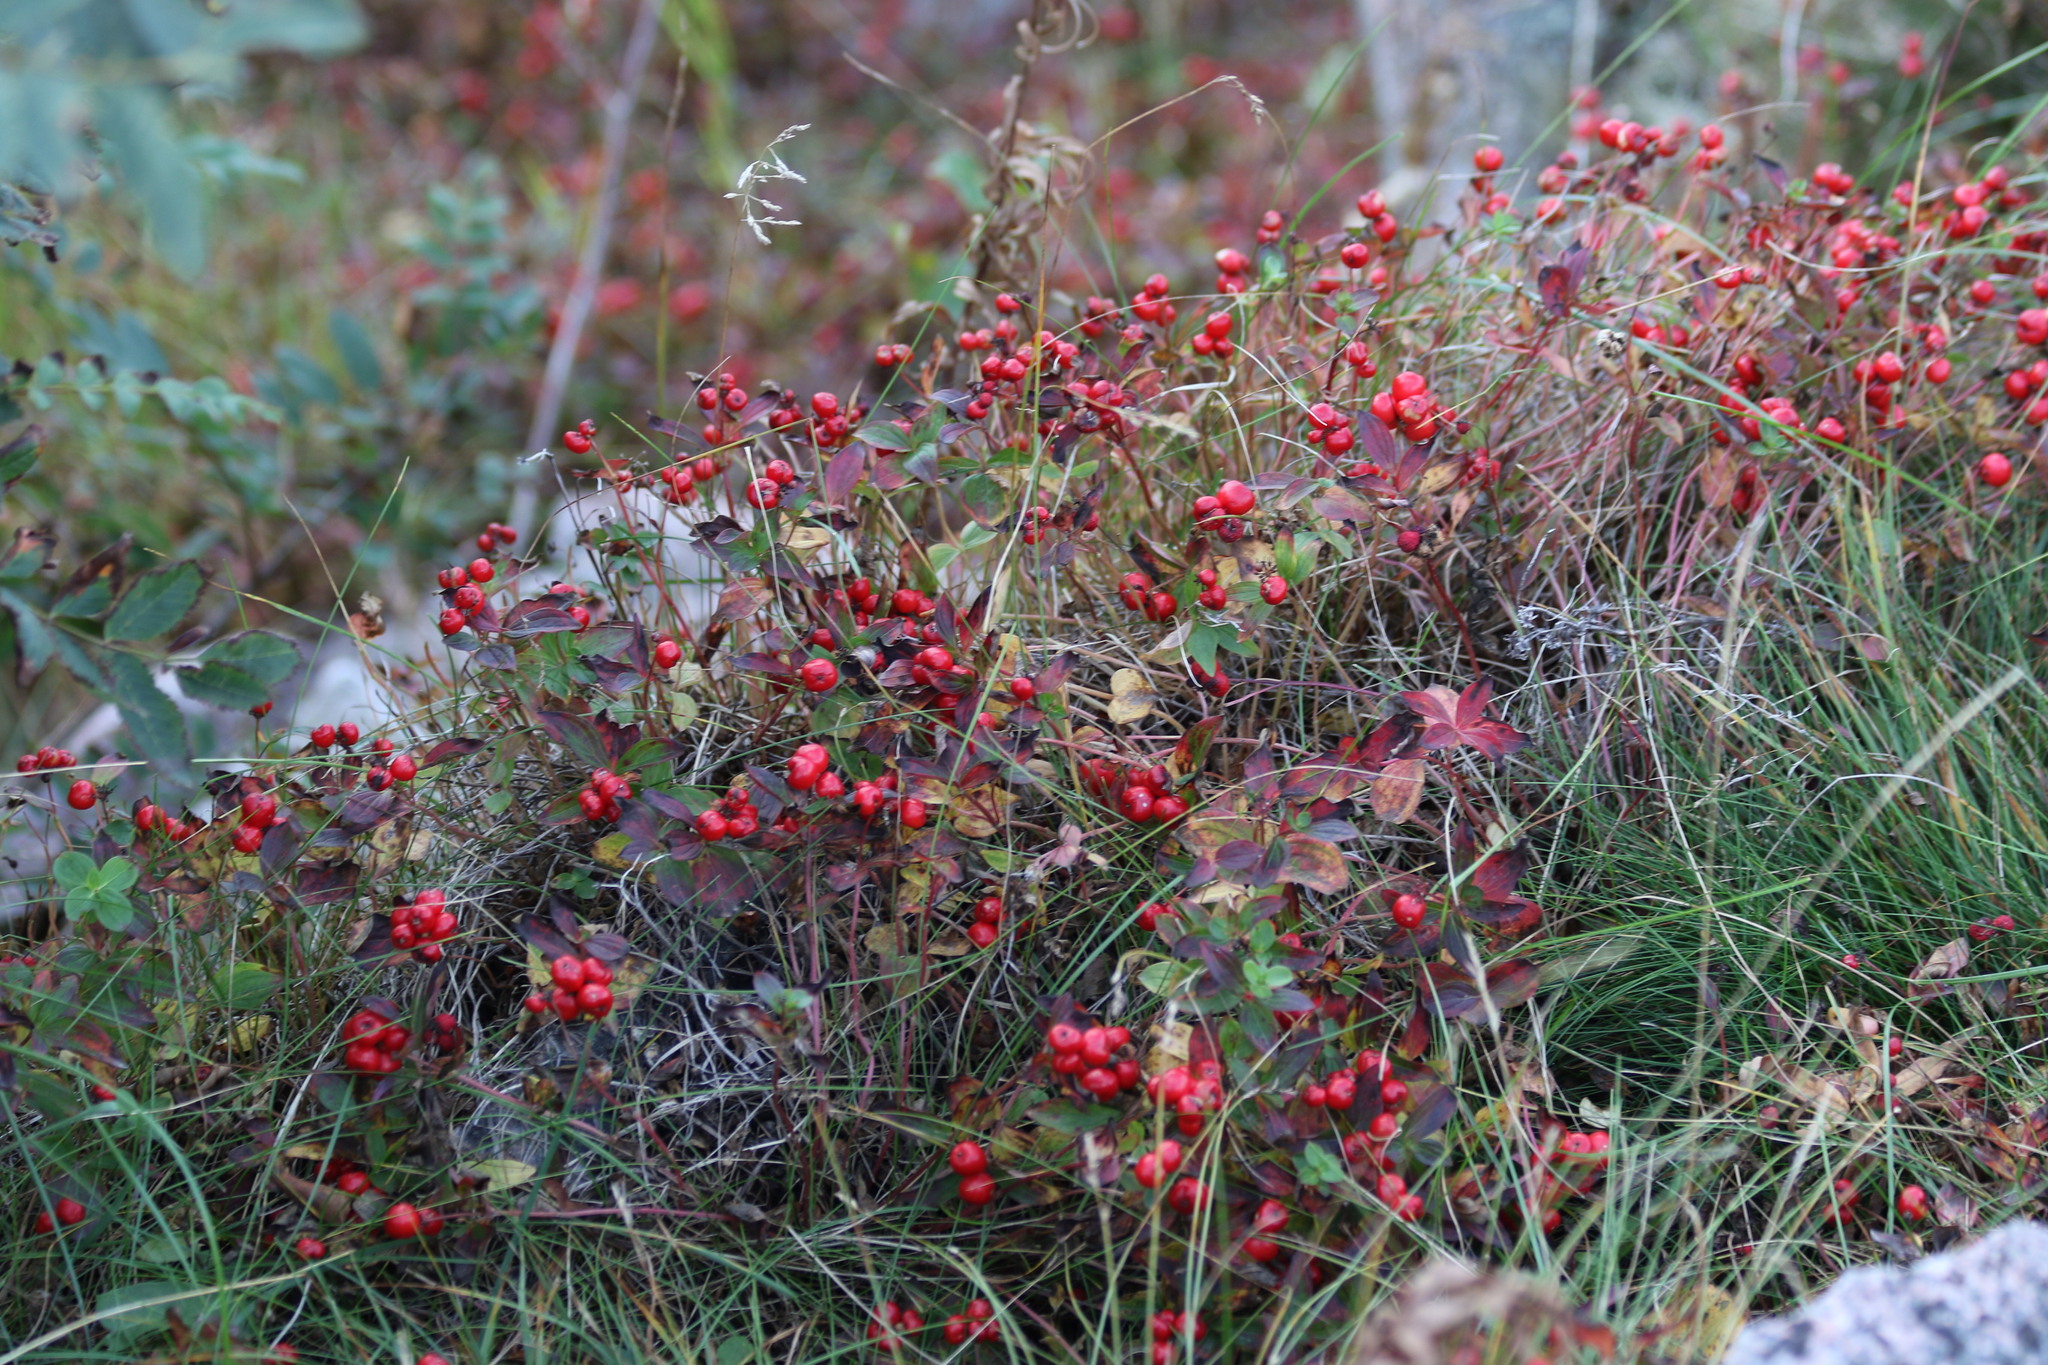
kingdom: Plantae
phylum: Tracheophyta
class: Magnoliopsida
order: Cornales
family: Cornaceae
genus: Cornus
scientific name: Cornus suecica
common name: Dwarf cornel
